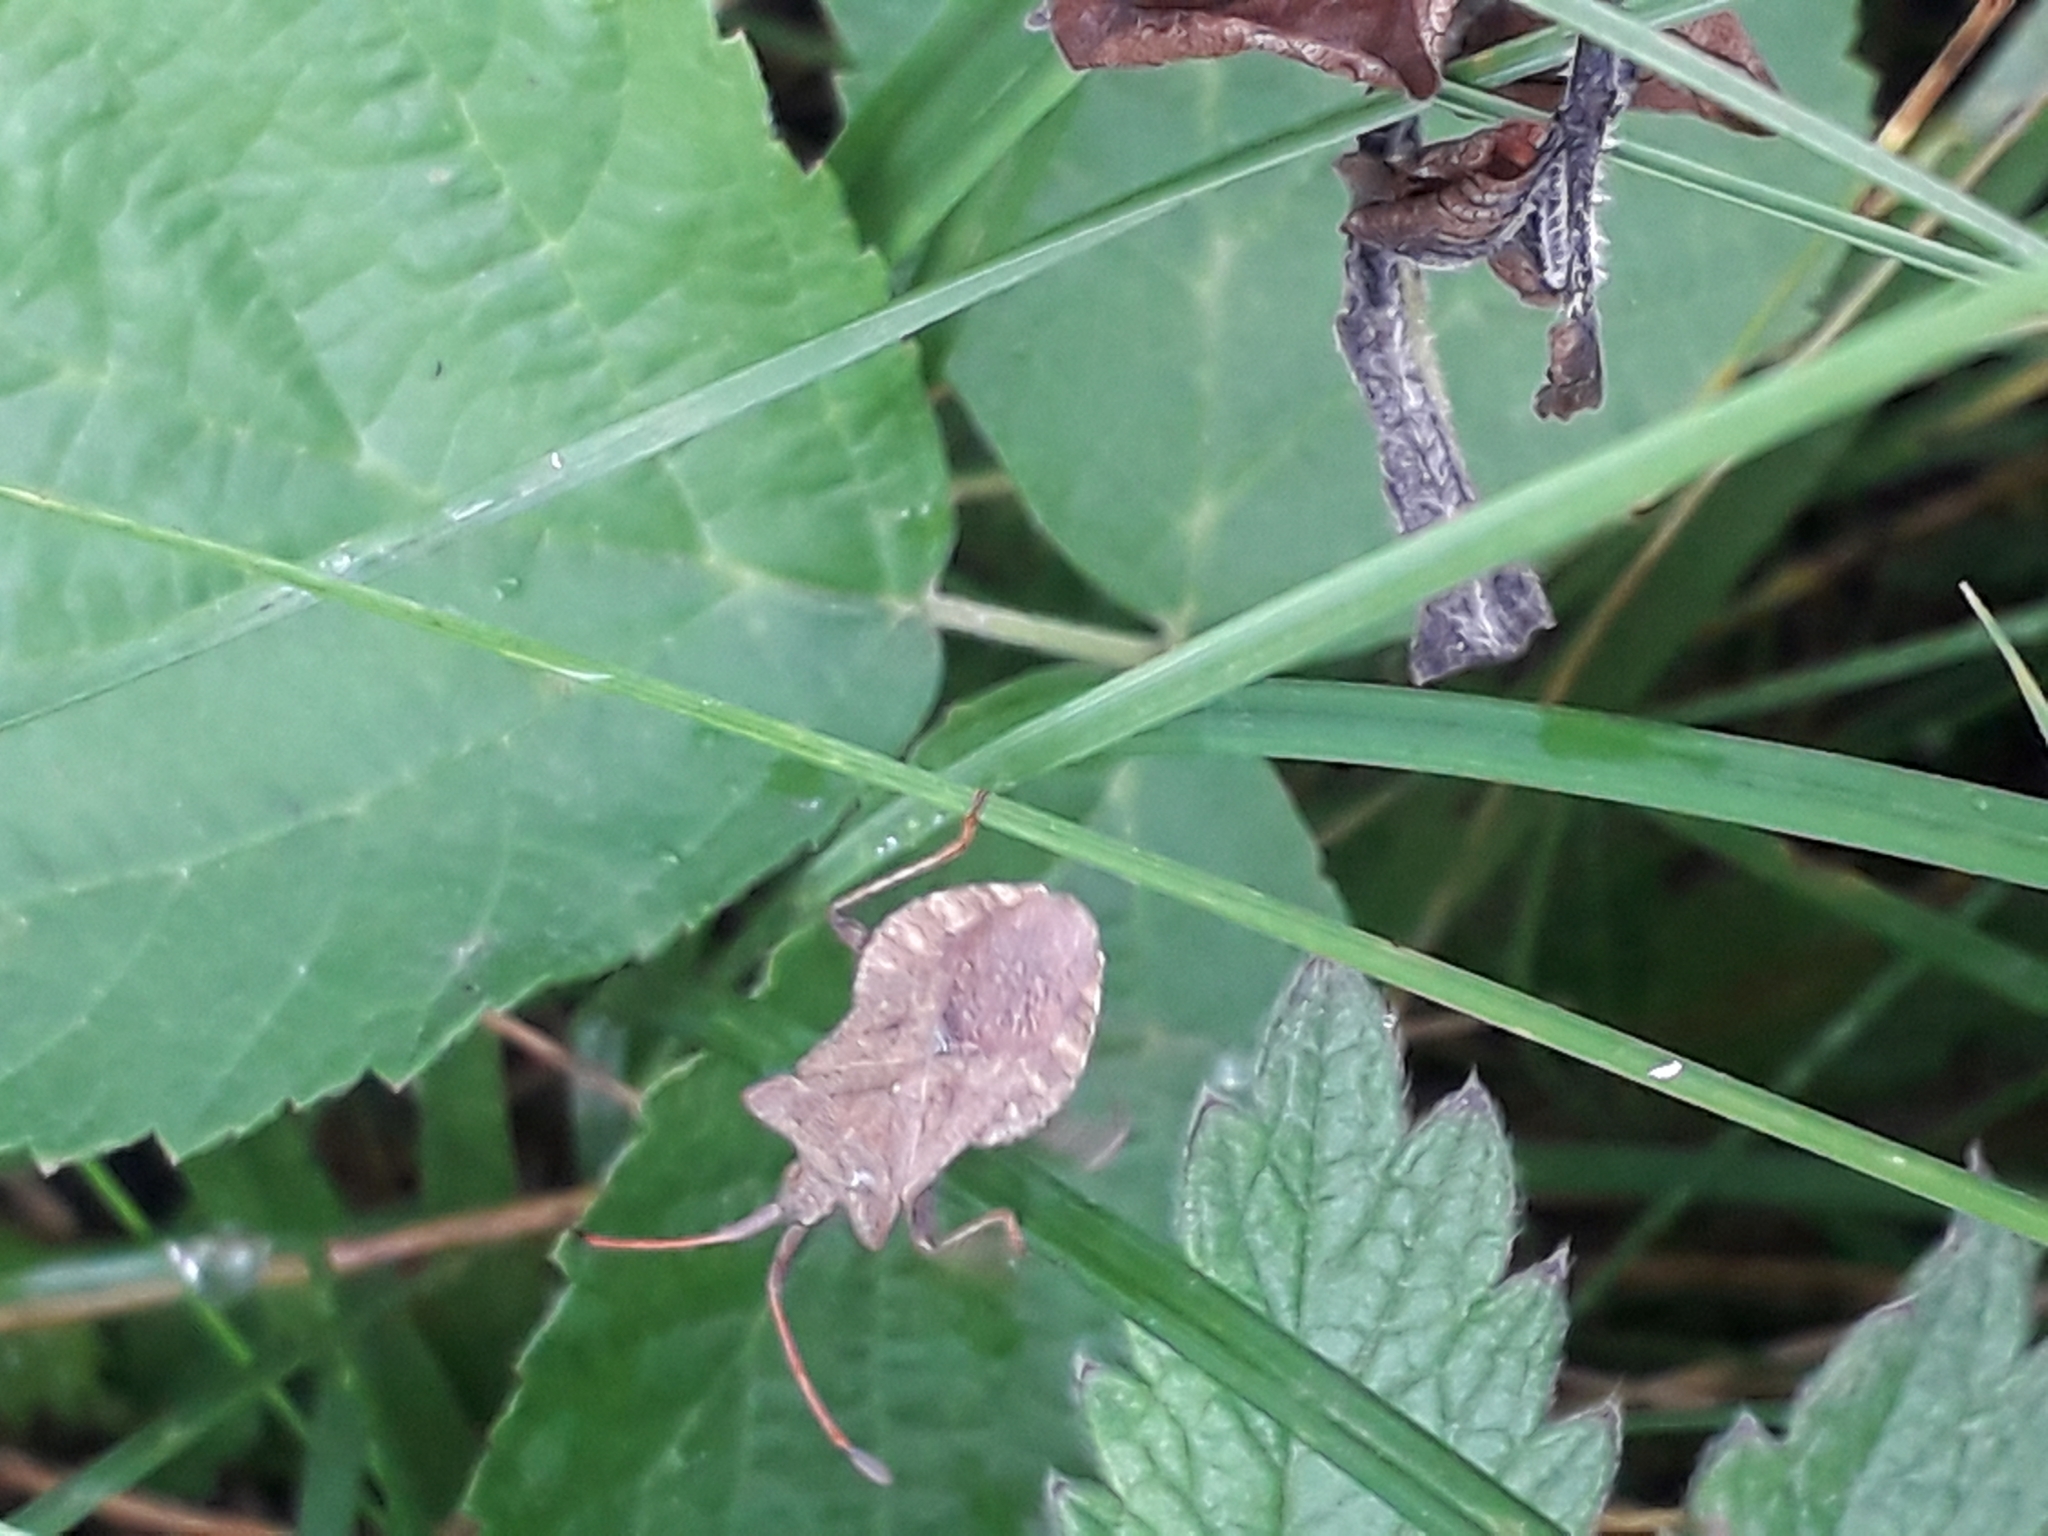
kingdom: Animalia
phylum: Arthropoda
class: Insecta
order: Hemiptera
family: Coreidae
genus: Coreus
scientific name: Coreus marginatus
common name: Dock bug
